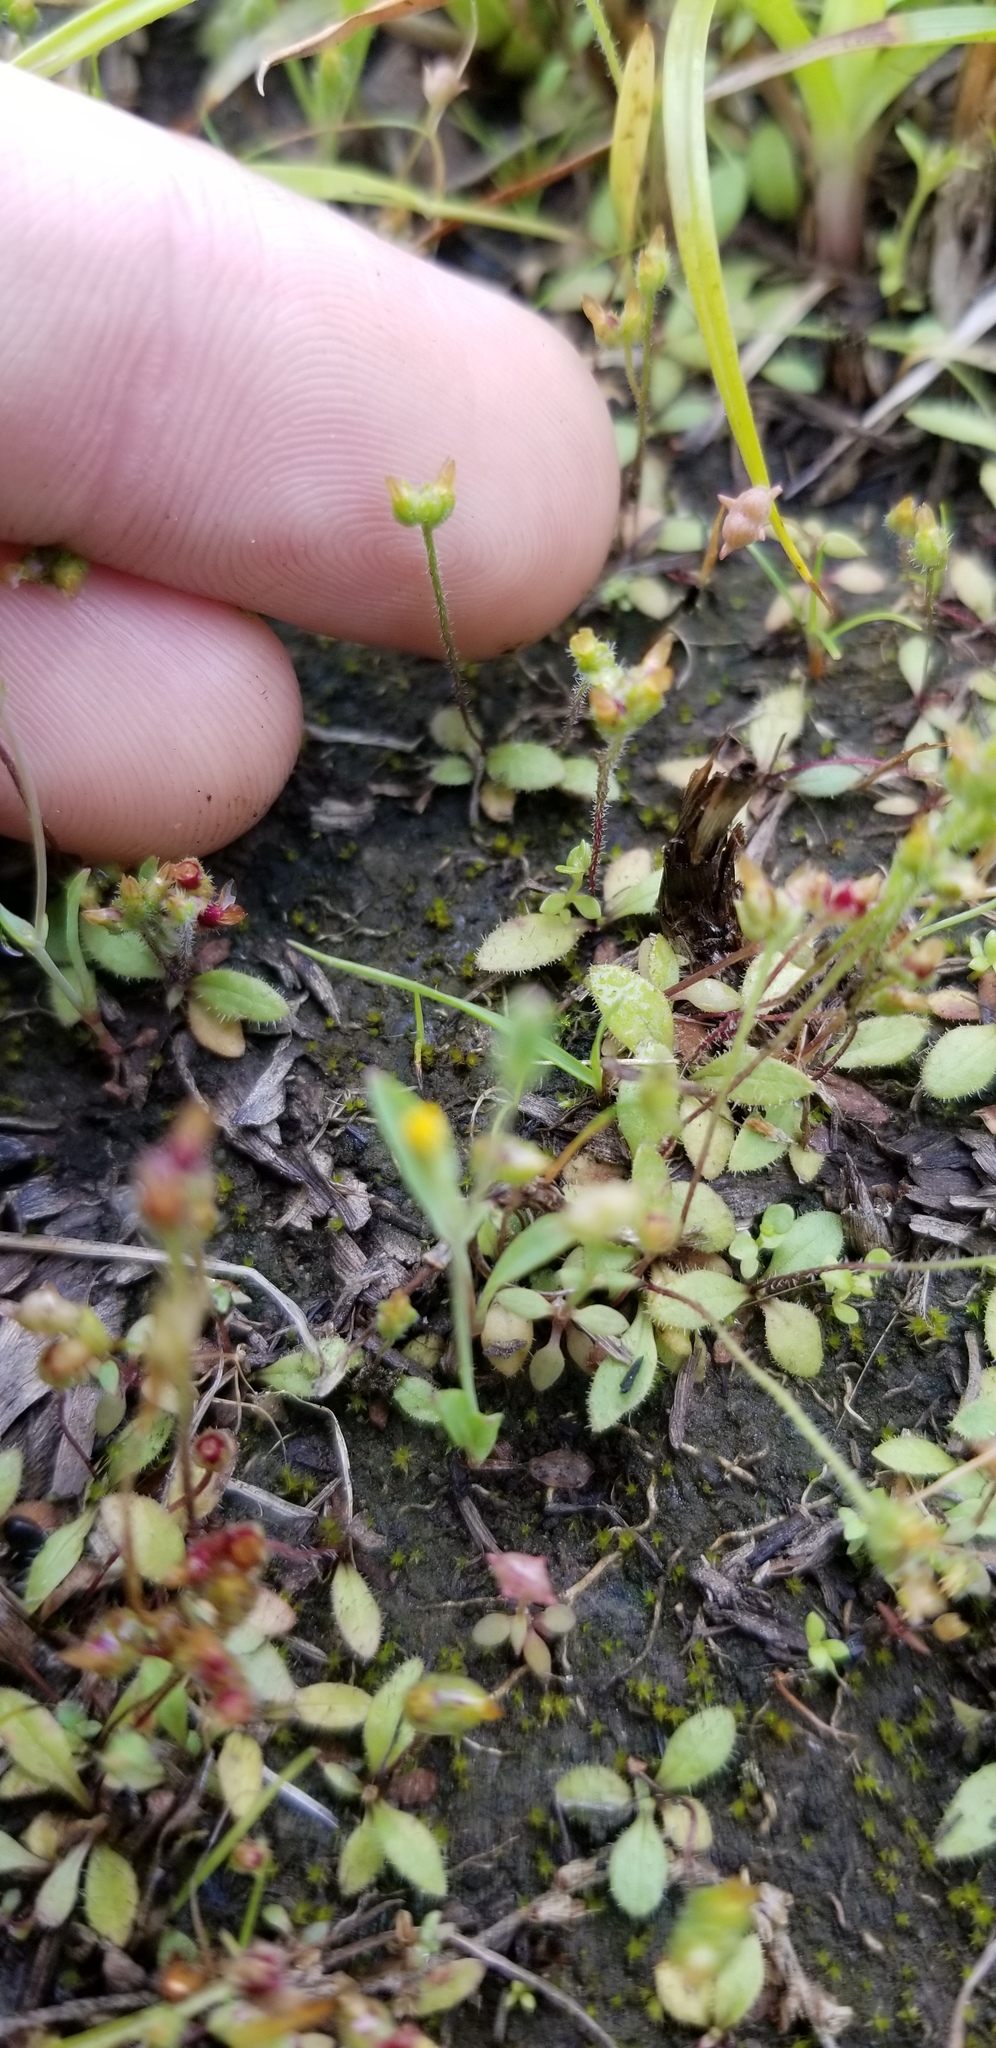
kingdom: Plantae
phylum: Tracheophyta
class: Magnoliopsida
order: Lamiales
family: Plantaginaceae
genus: Plantago
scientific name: Plantago virginica
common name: Hoary plantain
